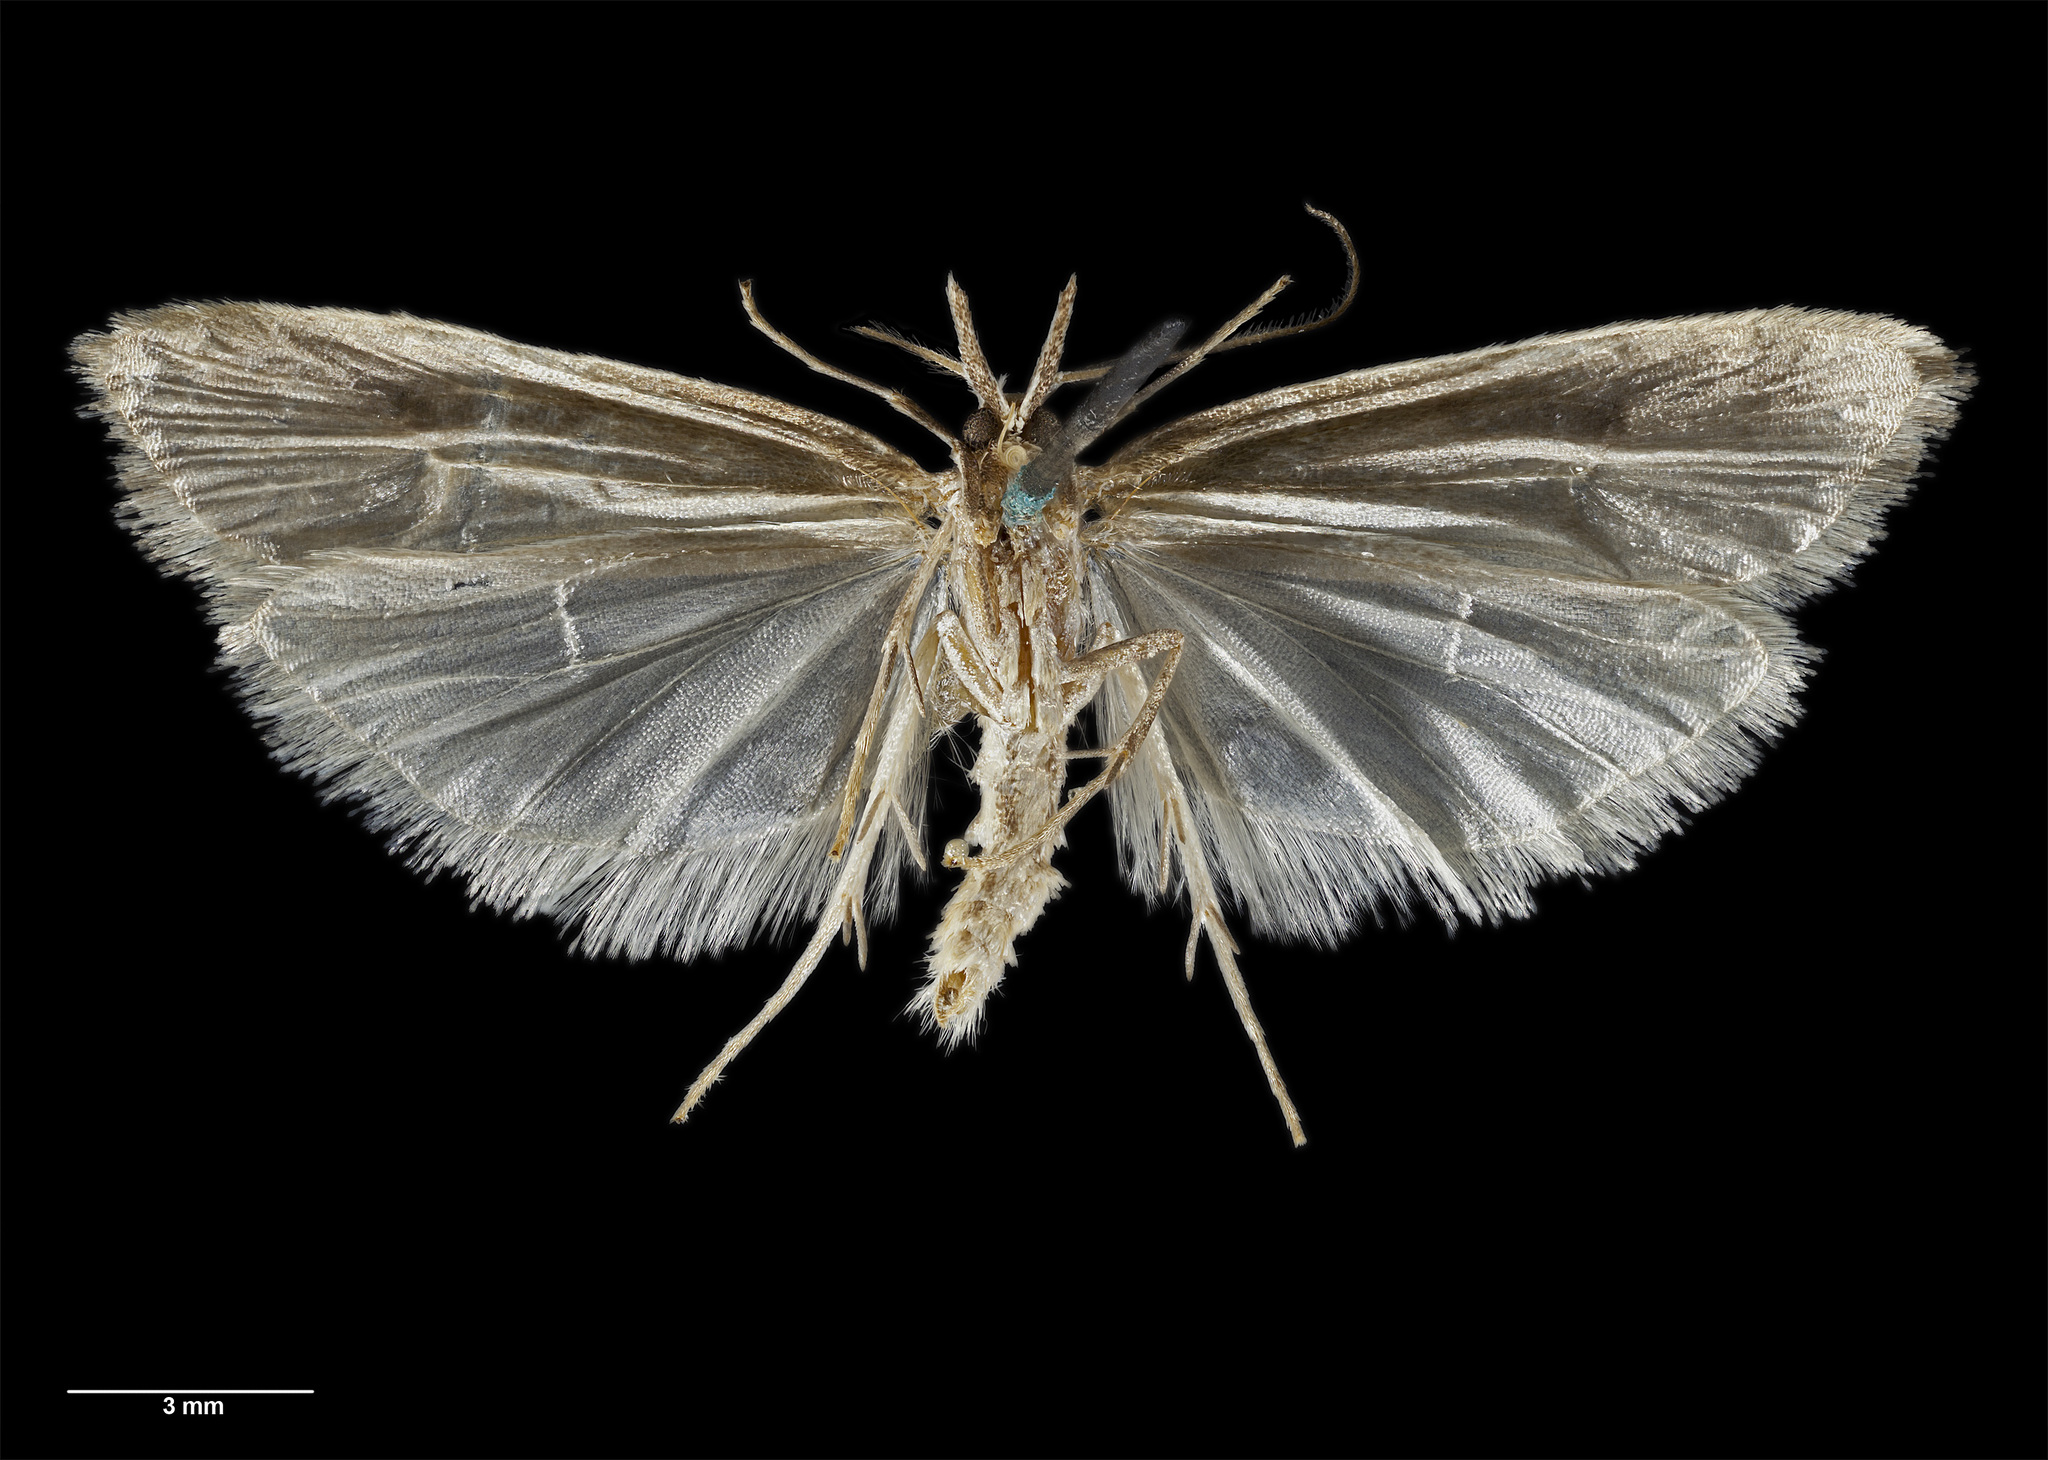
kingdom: Animalia
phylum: Arthropoda
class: Insecta
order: Lepidoptera
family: Carposinidae
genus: Carposina
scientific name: Carposina
